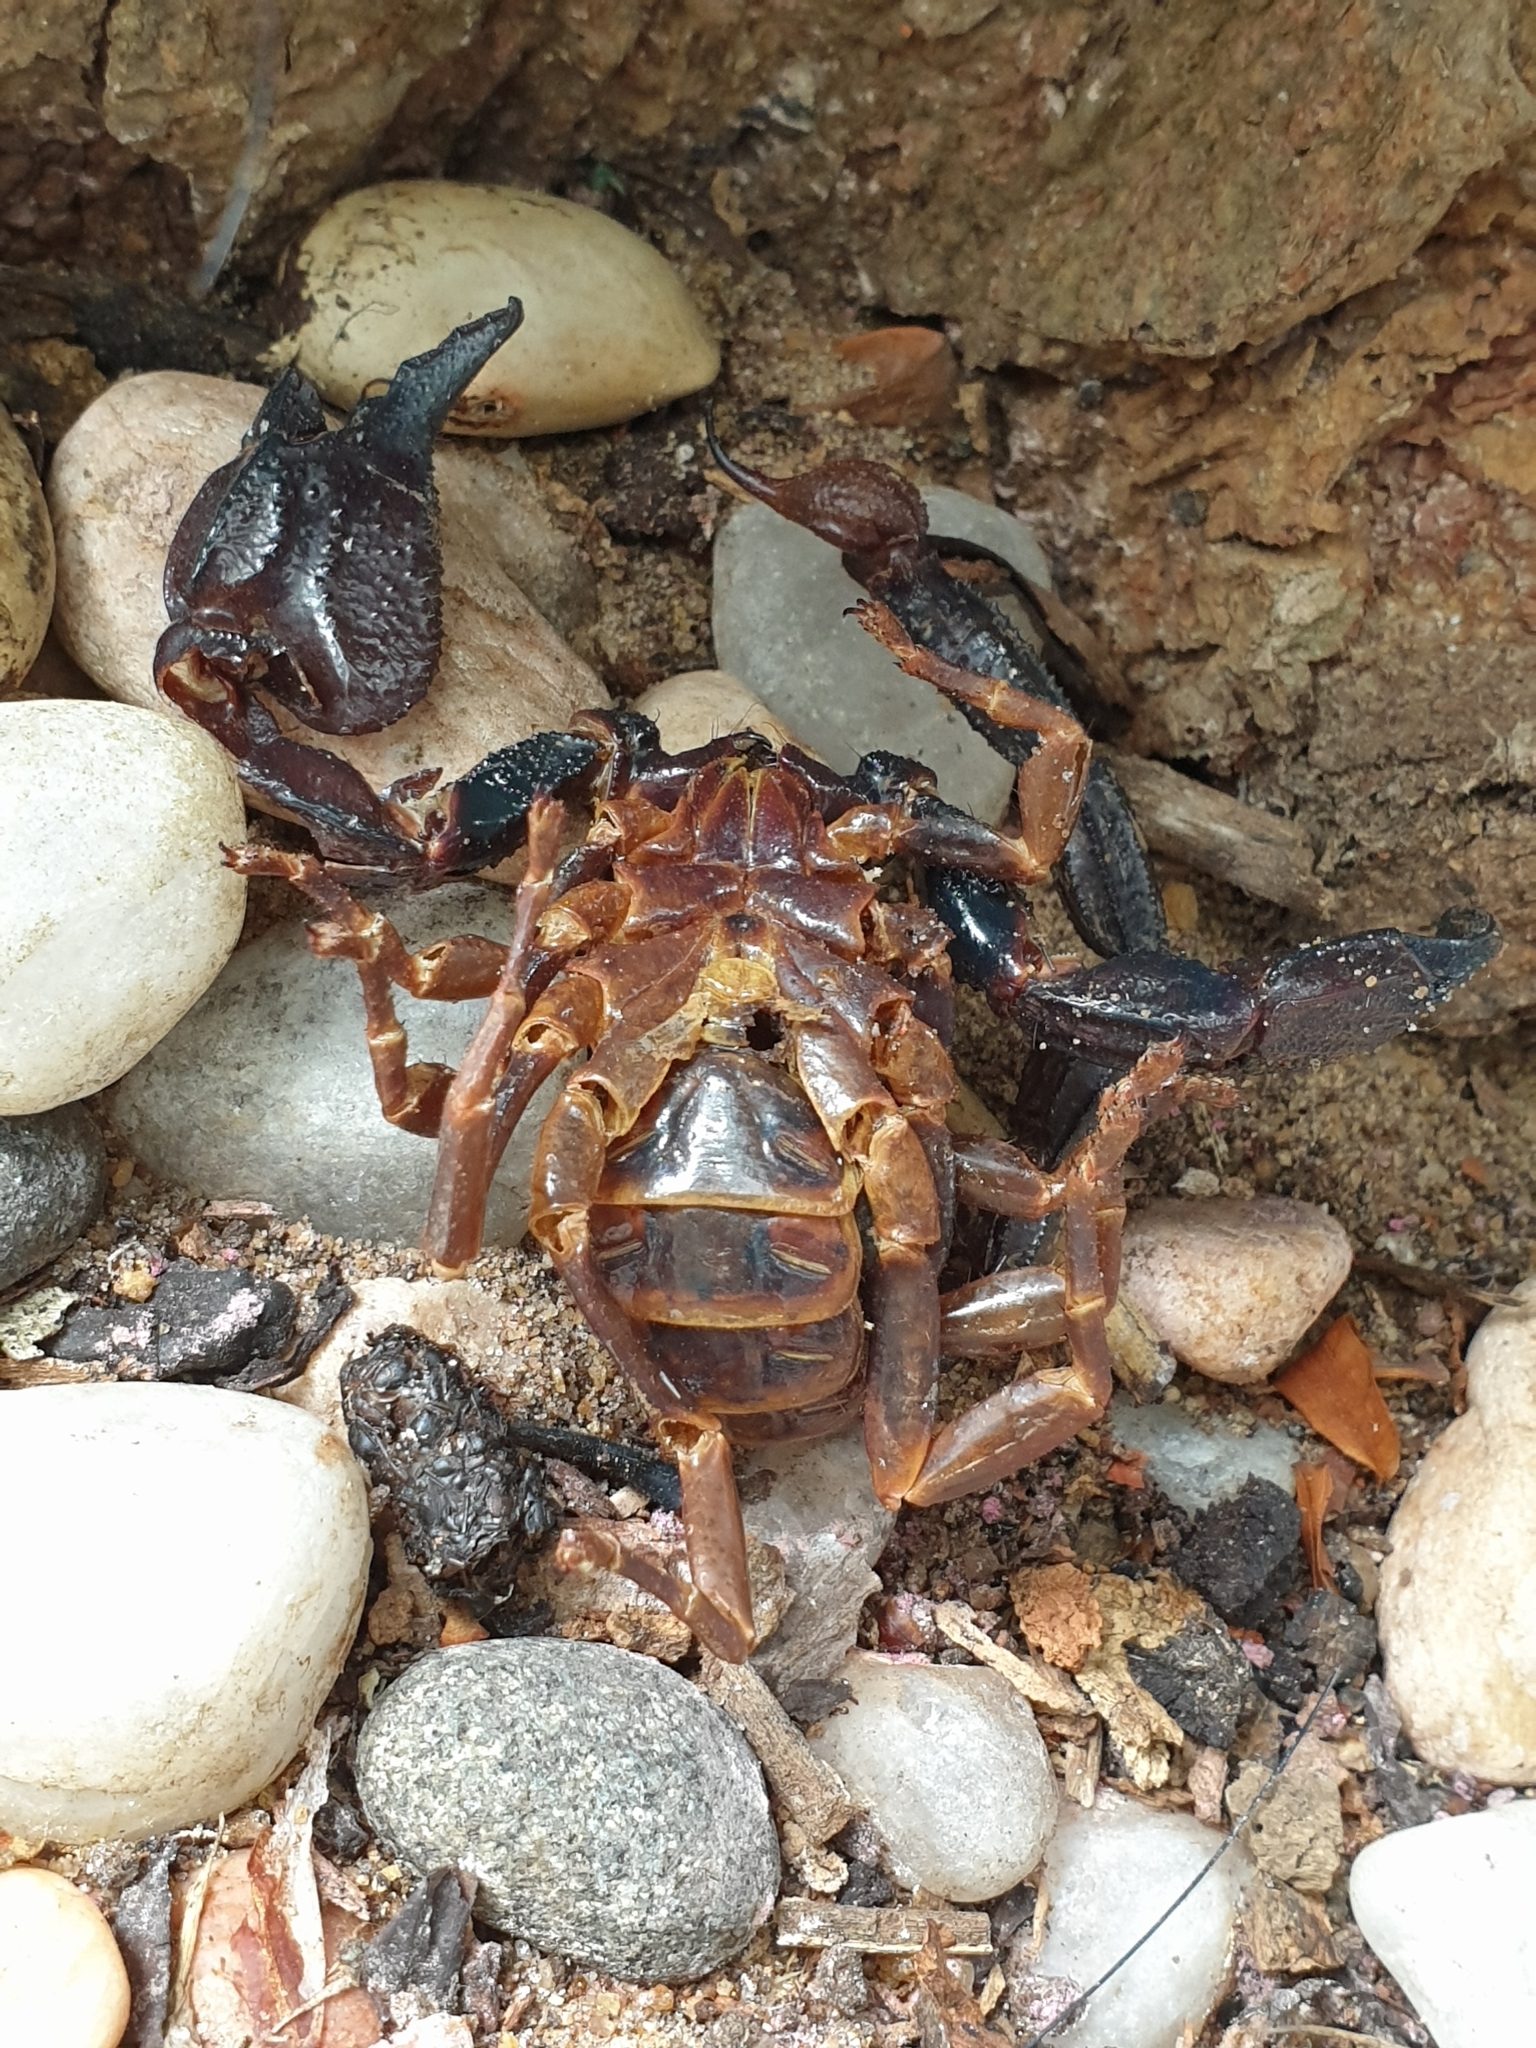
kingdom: Animalia
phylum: Arthropoda
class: Arachnida
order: Scorpiones
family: Scorpionidae
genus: Gigantometrus
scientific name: Gigantometrus titanicus
